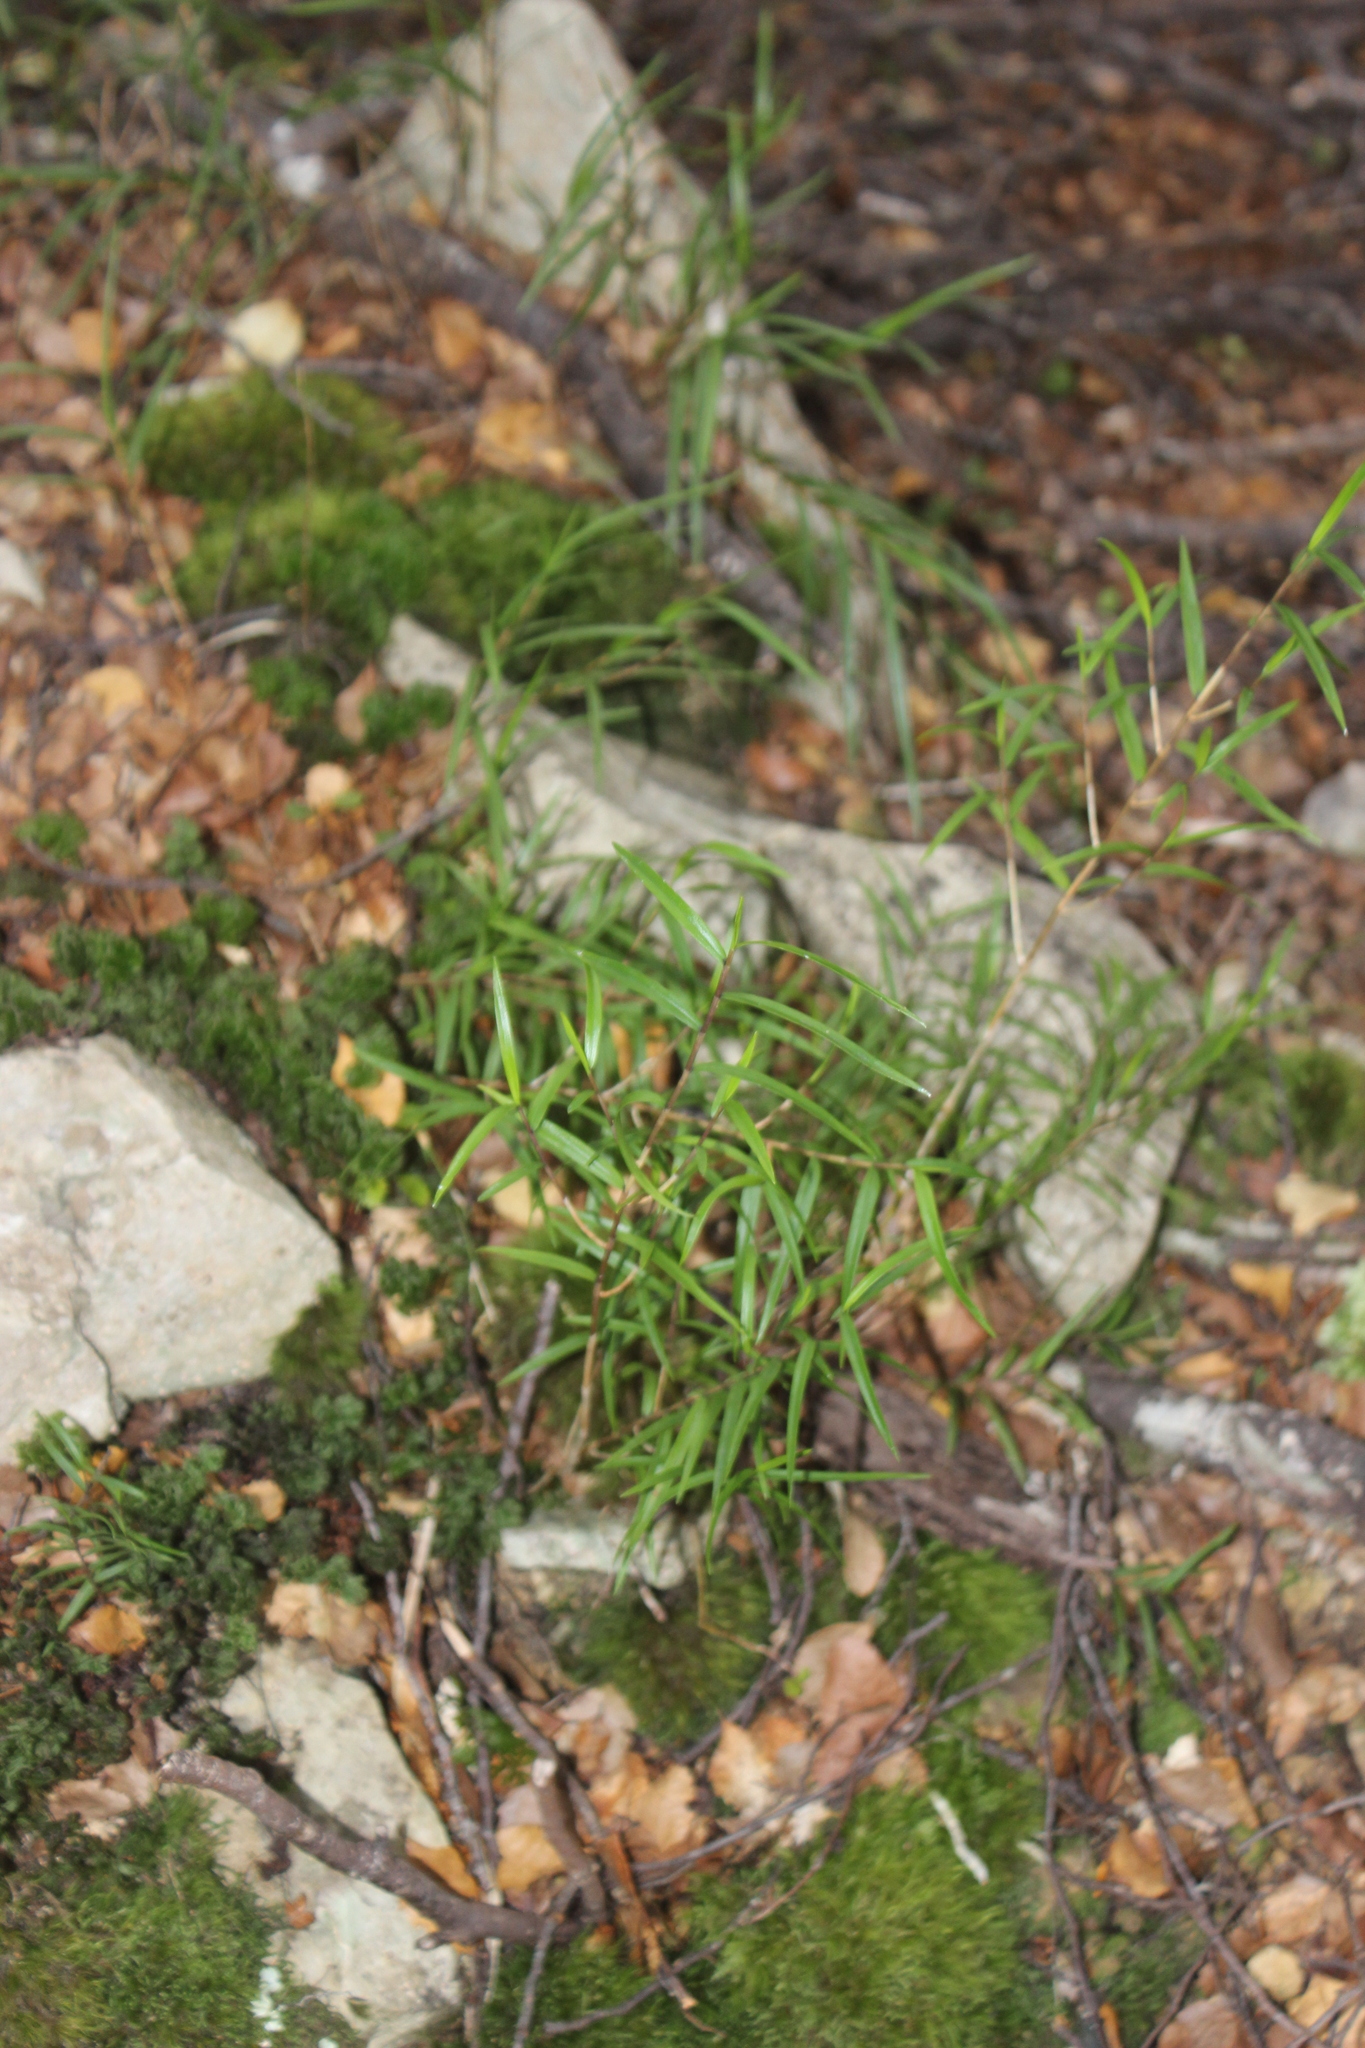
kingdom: Plantae
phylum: Tracheophyta
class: Liliopsida
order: Asparagales
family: Orchidaceae
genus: Dendrobium
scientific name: Dendrobium cunninghamii
